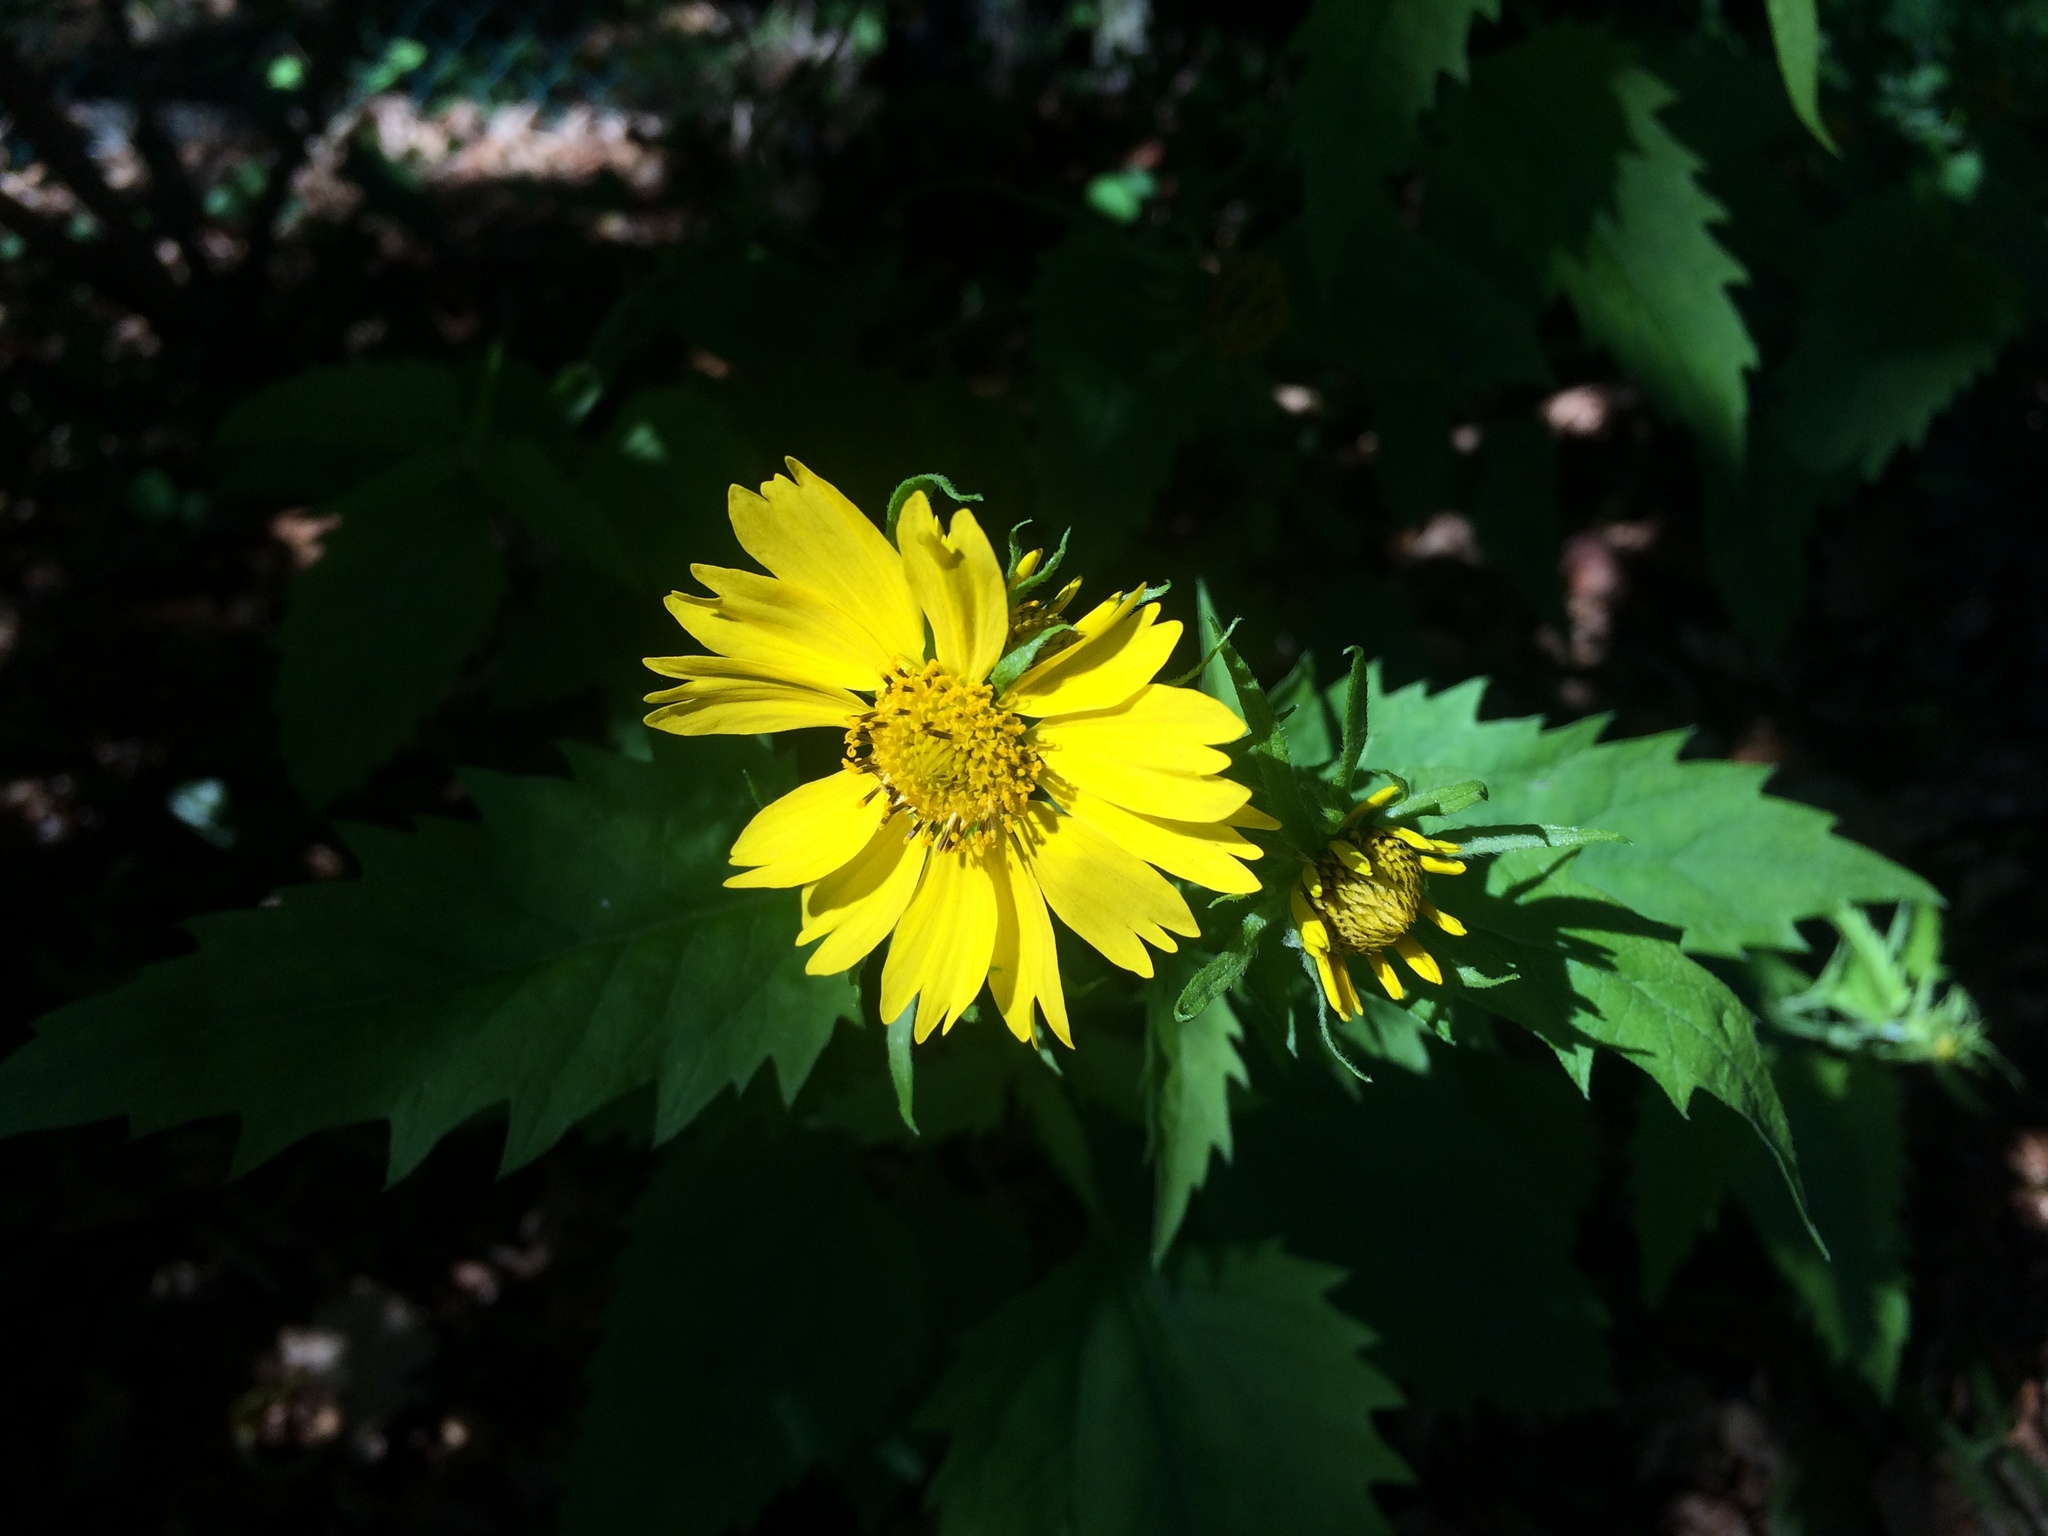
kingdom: Plantae
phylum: Tracheophyta
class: Magnoliopsida
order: Asterales
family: Asteraceae
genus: Verbesina
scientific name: Verbesina encelioides
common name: Golden crownbeard
